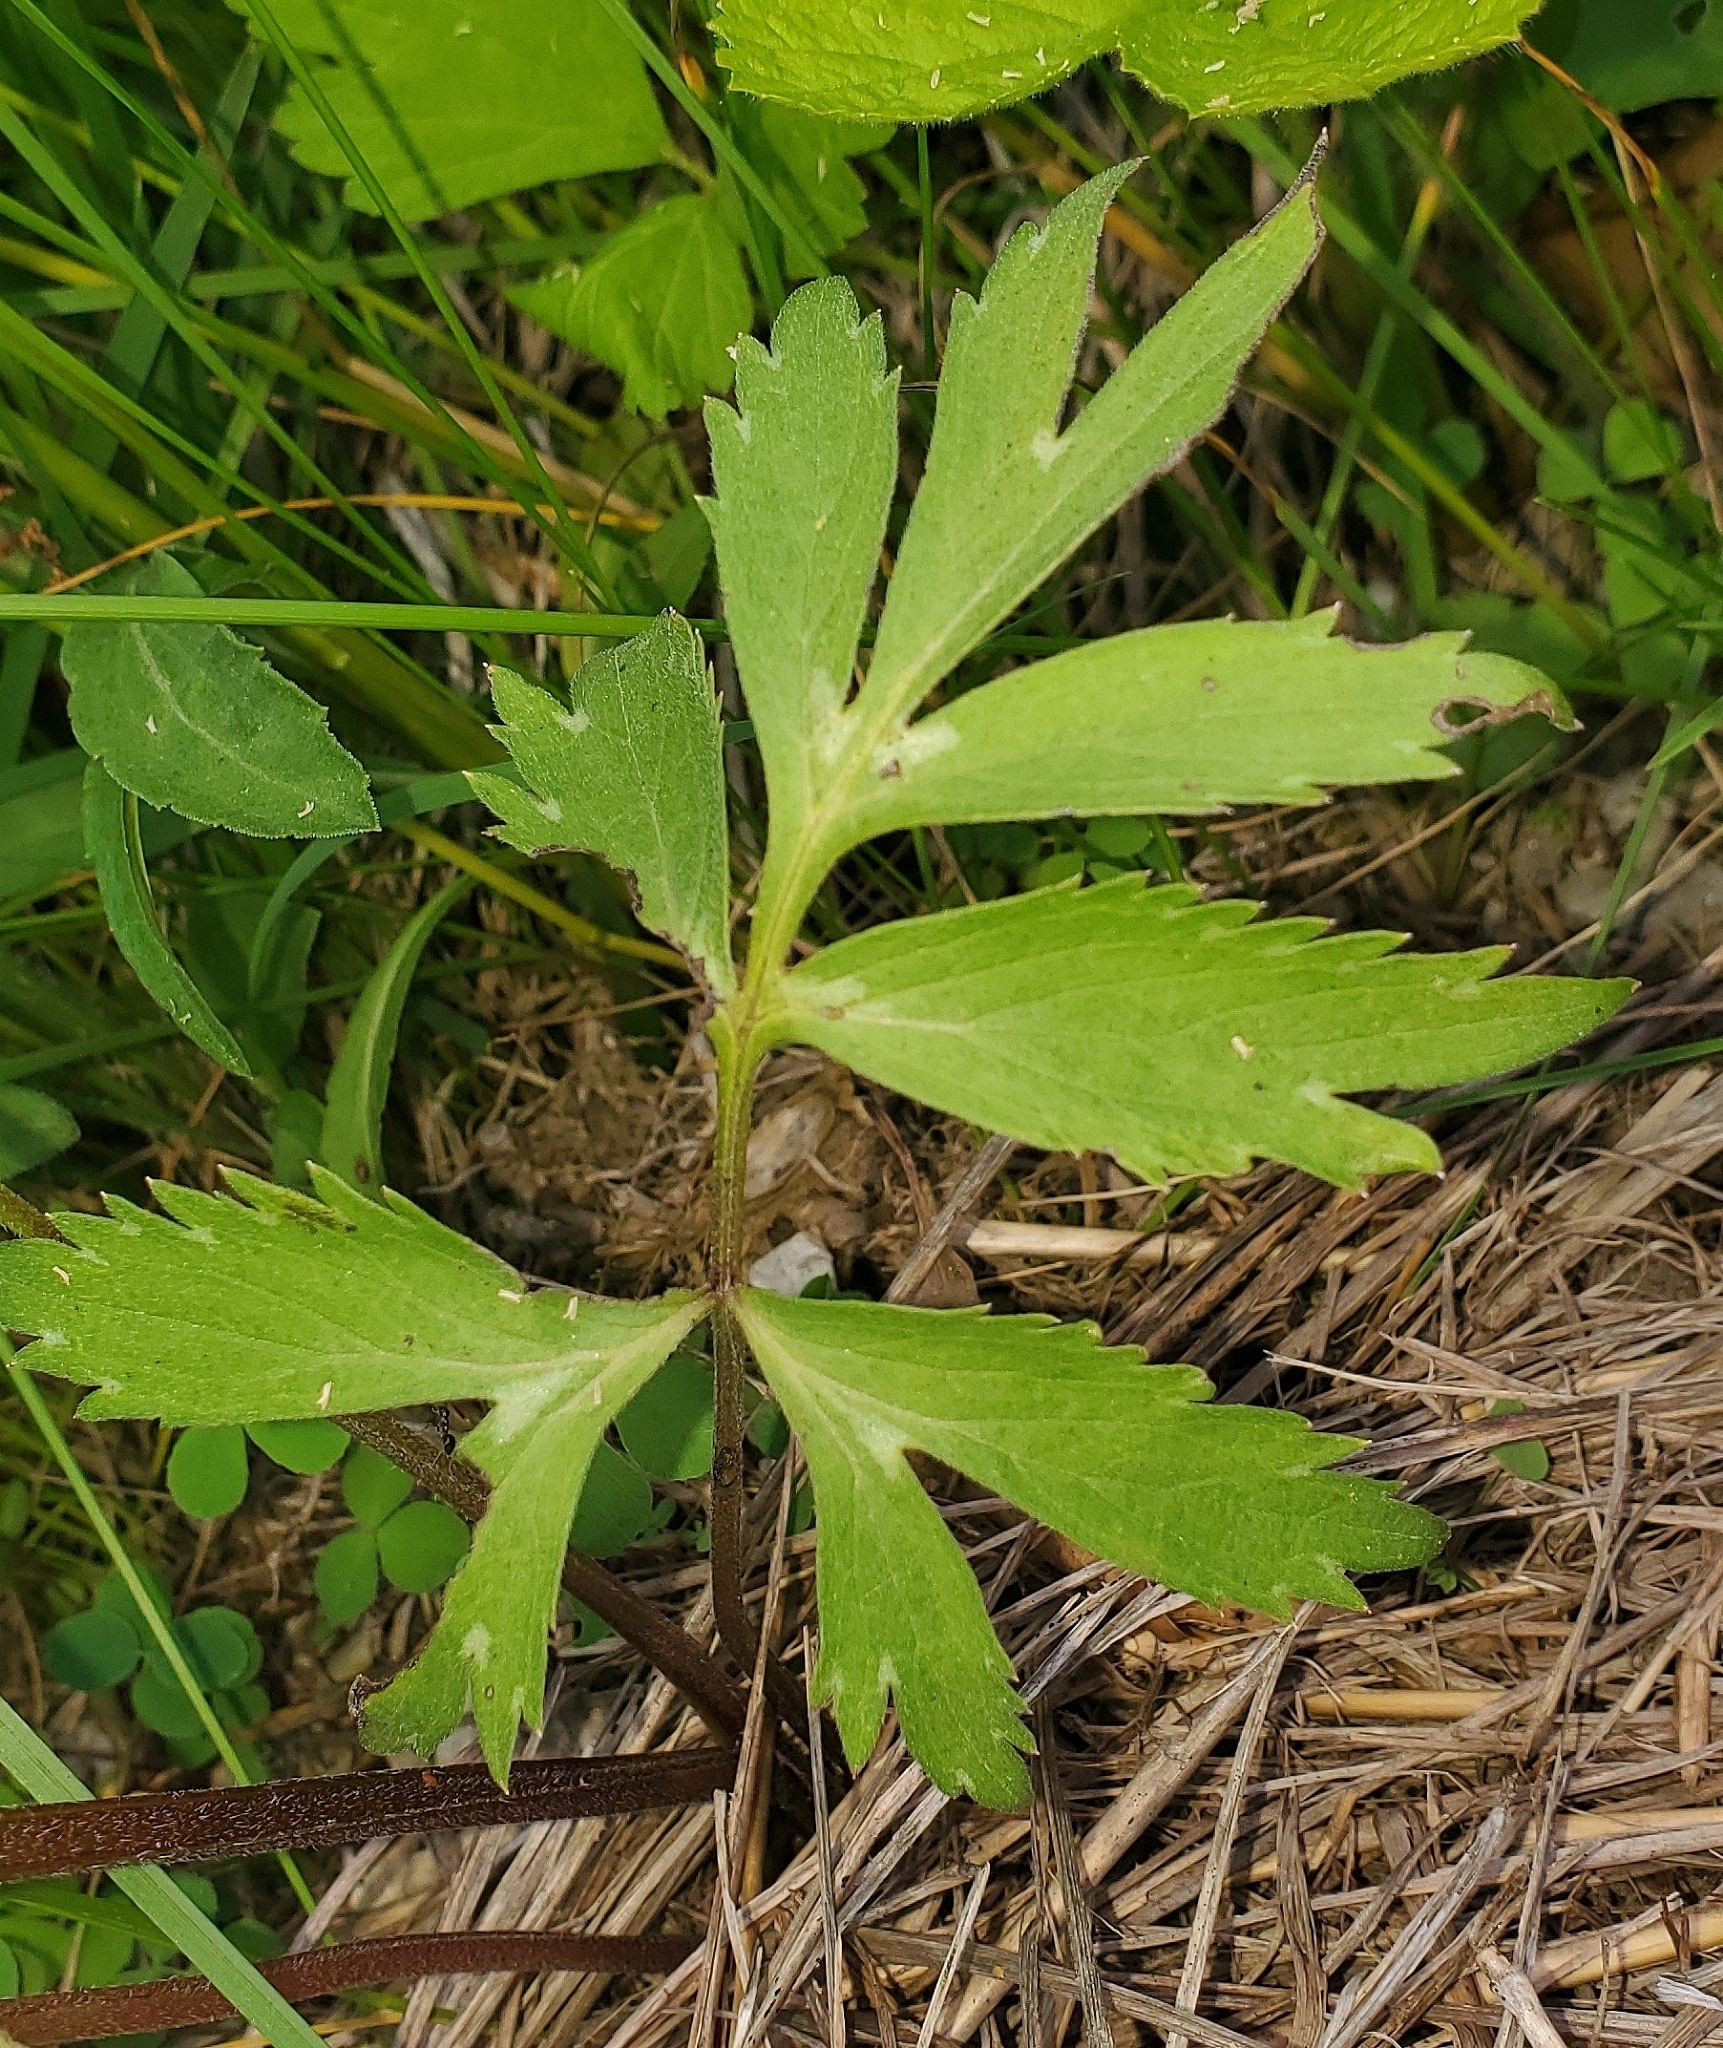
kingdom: Plantae
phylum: Tracheophyta
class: Magnoliopsida
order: Boraginales
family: Hydrophyllaceae
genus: Hydrophyllum
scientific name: Hydrophyllum virginianum
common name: Virginia waterleaf
